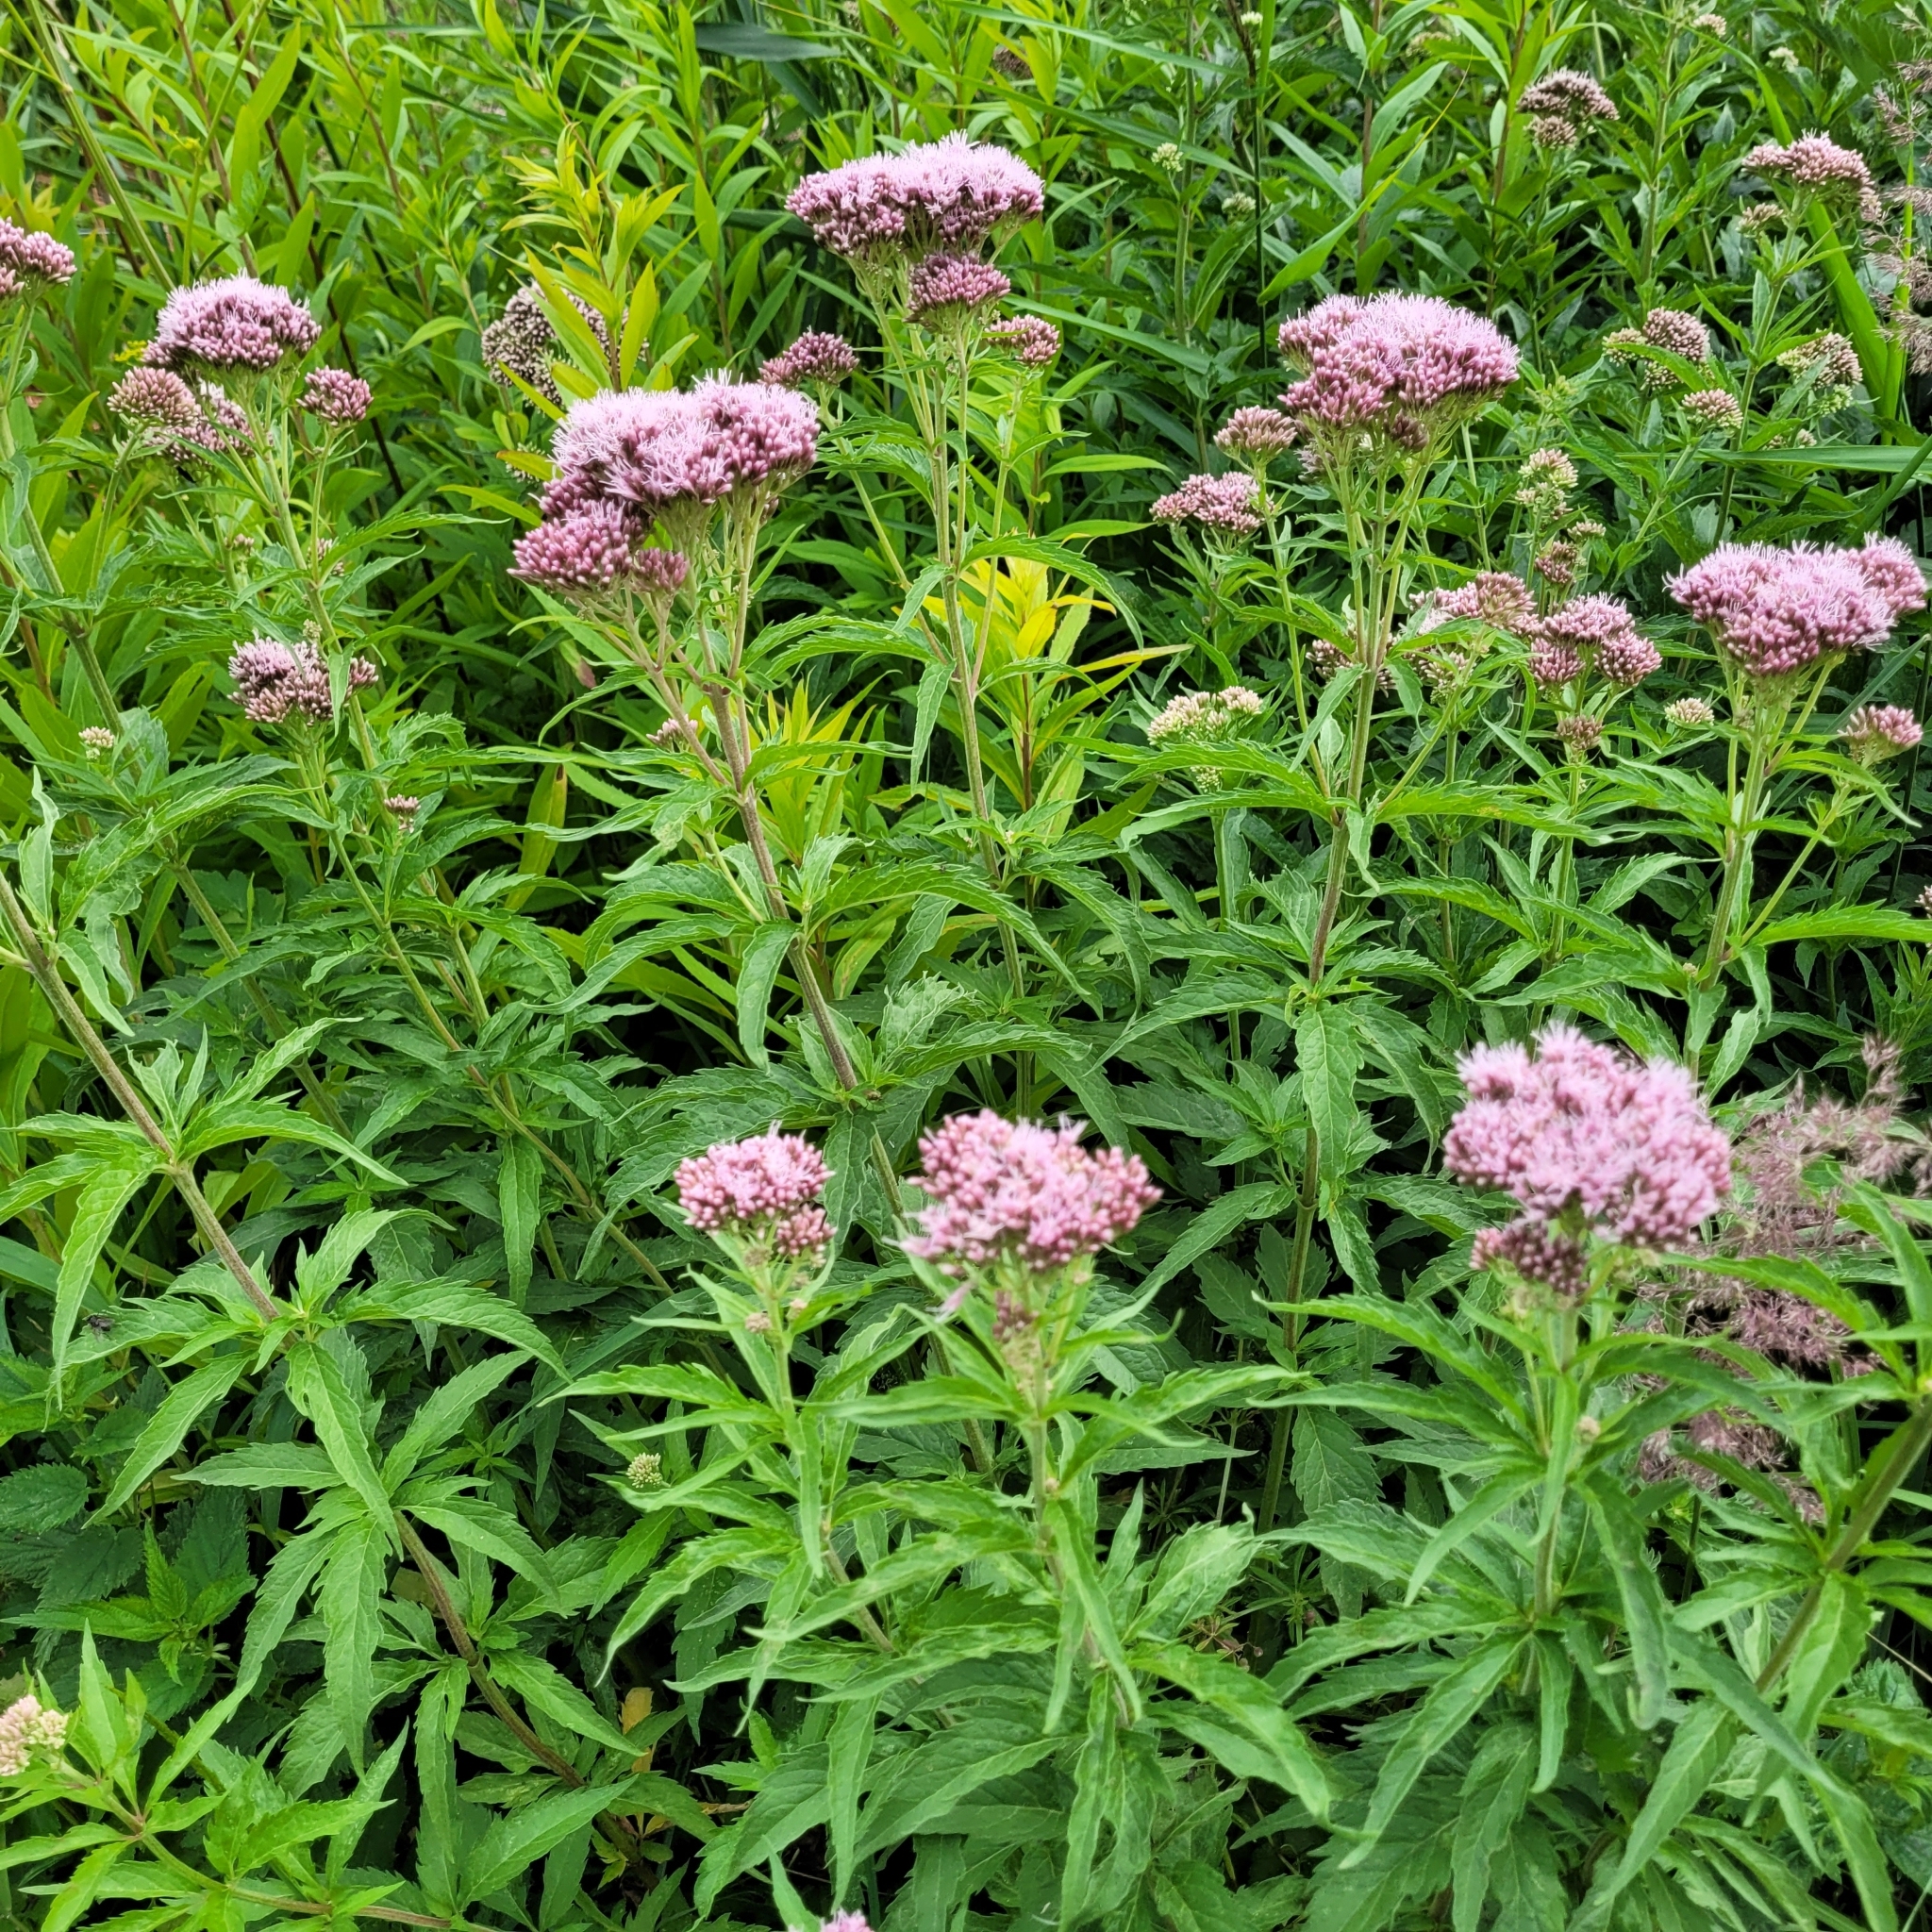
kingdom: Plantae
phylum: Tracheophyta
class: Magnoliopsida
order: Asterales
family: Asteraceae
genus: Eupatorium
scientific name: Eupatorium cannabinum
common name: Hemp-agrimony
